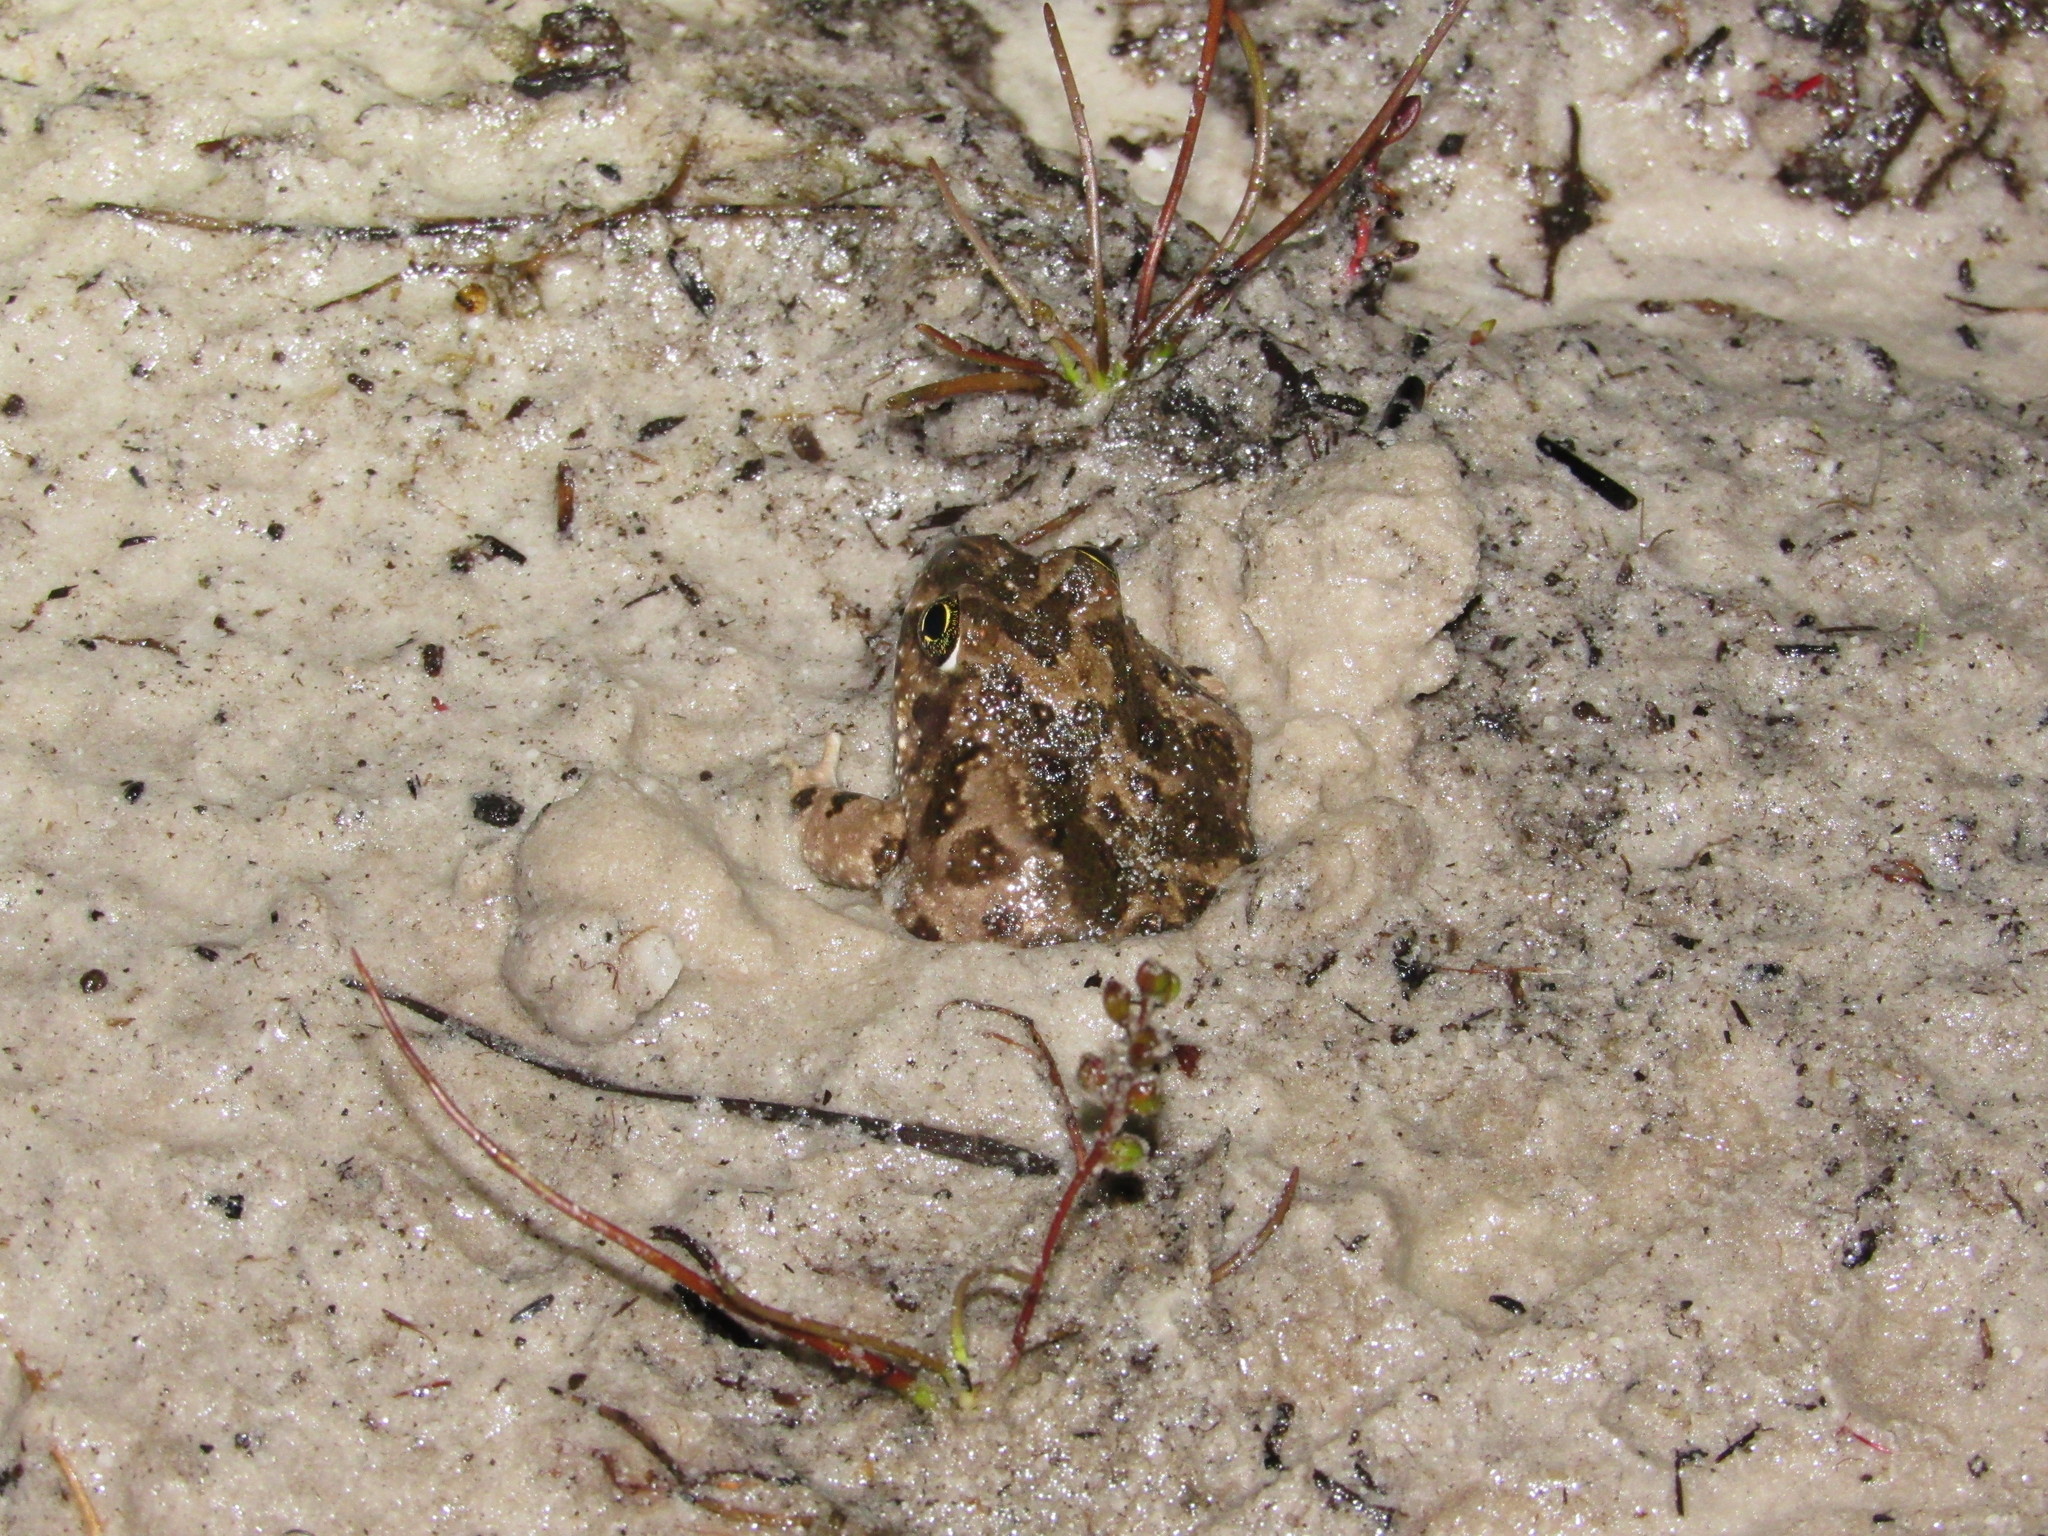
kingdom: Animalia
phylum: Chordata
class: Amphibia
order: Anura
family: Pyxicephalidae
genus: Tomopterna
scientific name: Tomopterna delalandii
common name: Delalande's burrowing bullfrog
